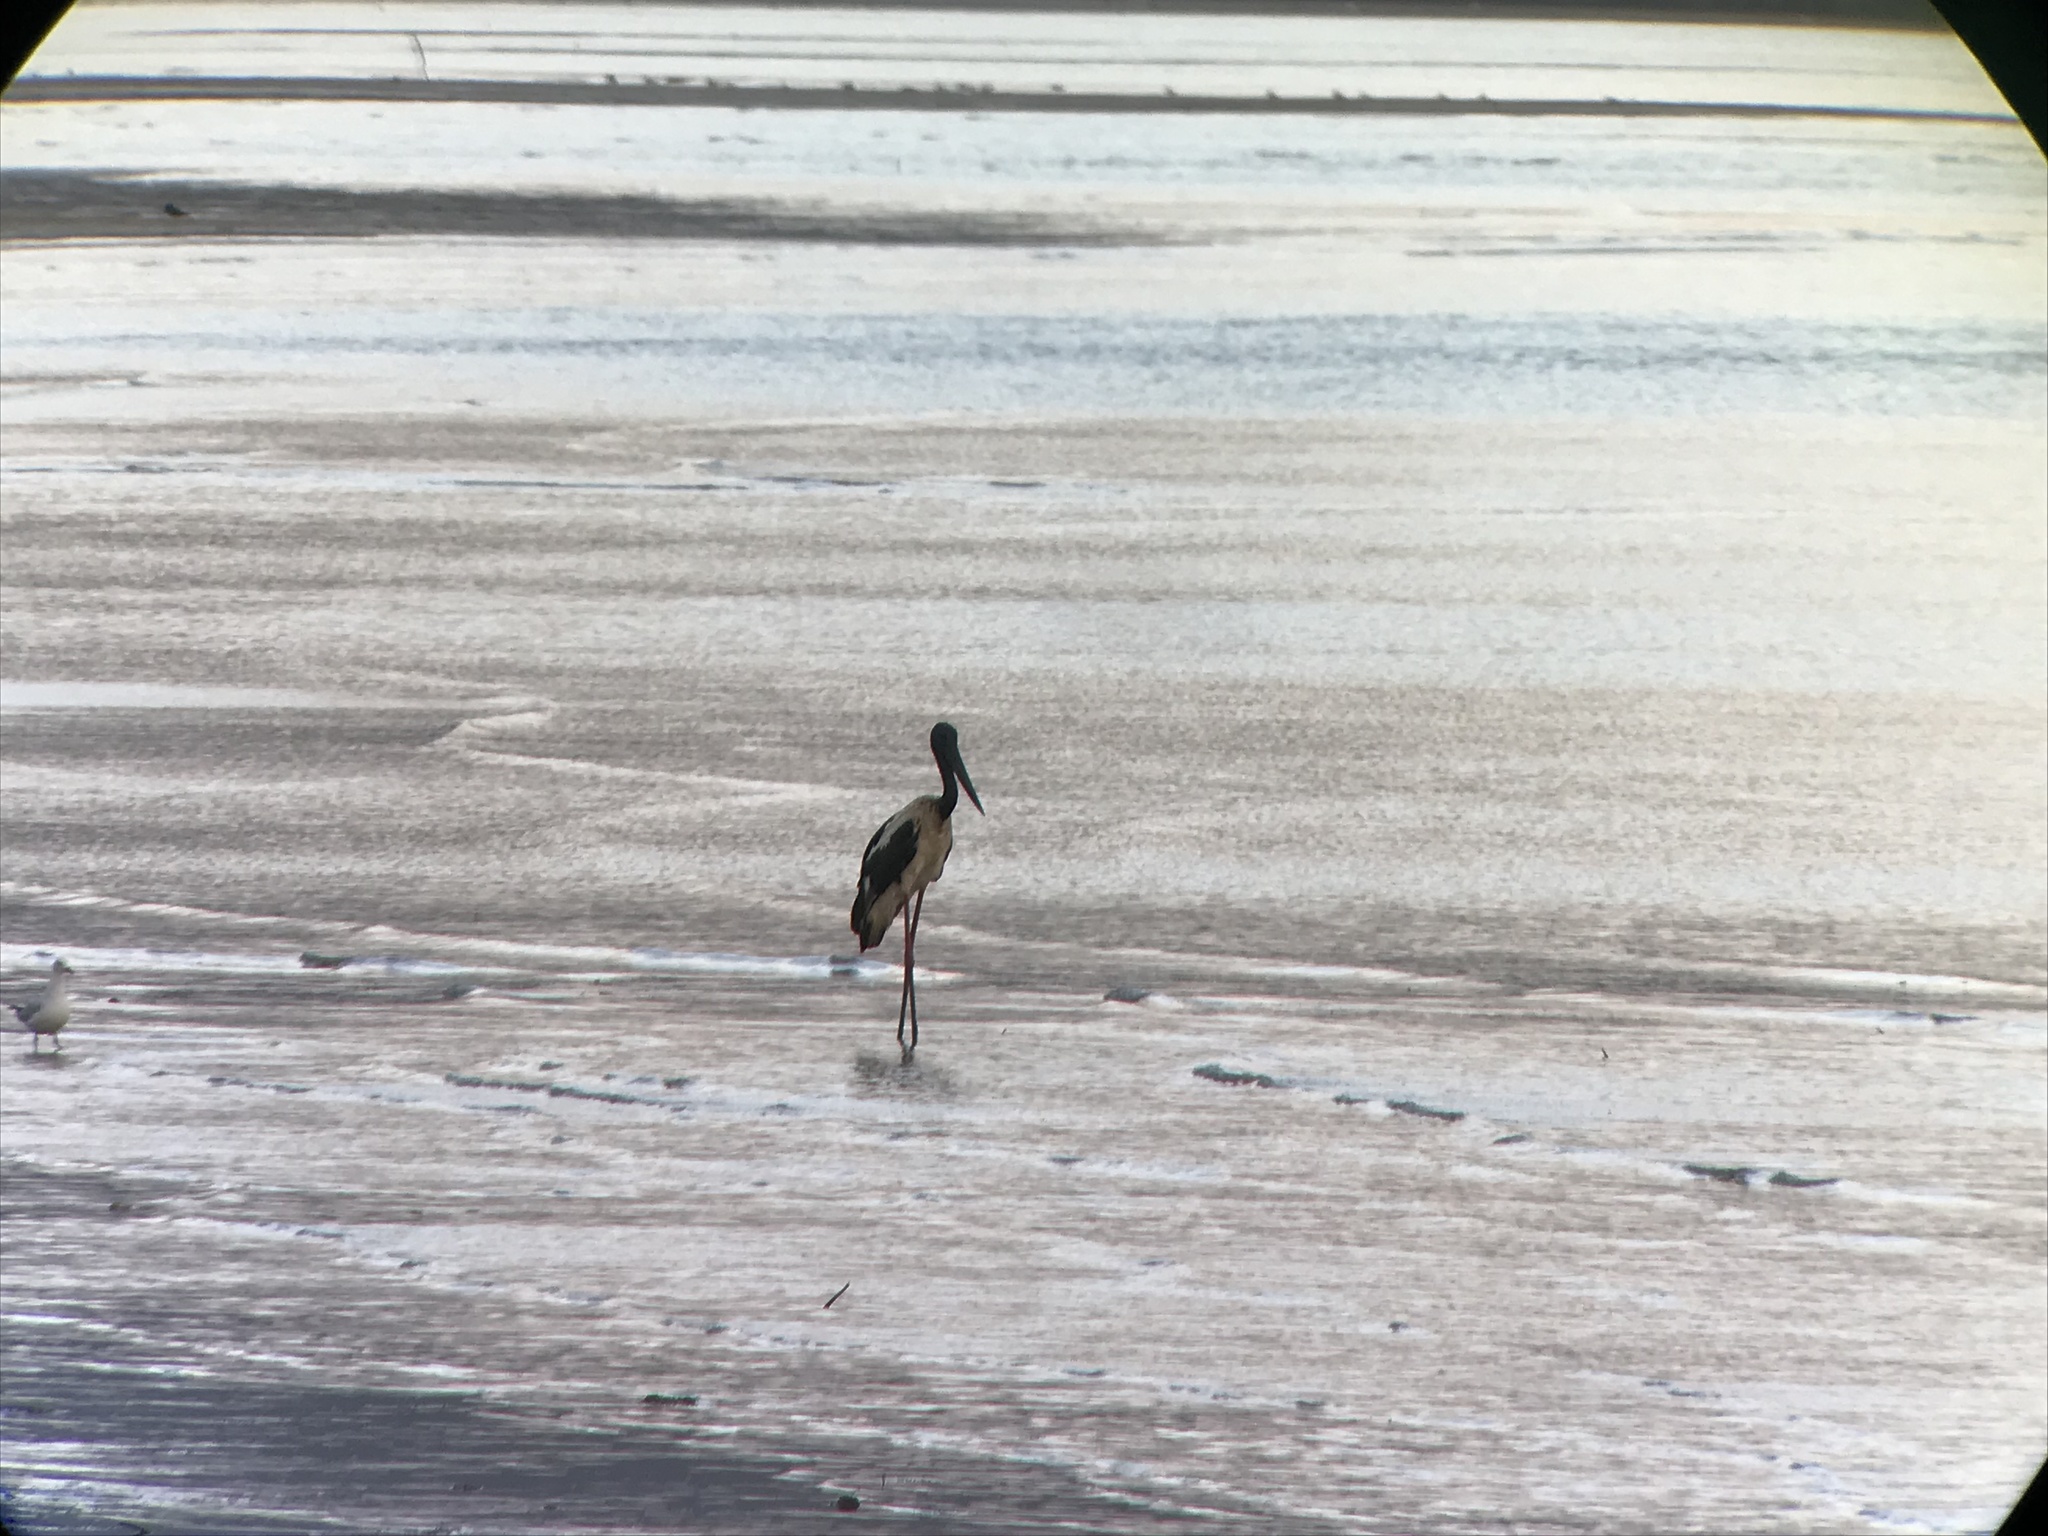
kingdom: Animalia
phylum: Chordata
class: Aves
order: Ciconiiformes
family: Ciconiidae
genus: Ephippiorhynchus
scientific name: Ephippiorhynchus asiaticus
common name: Black-necked stork
